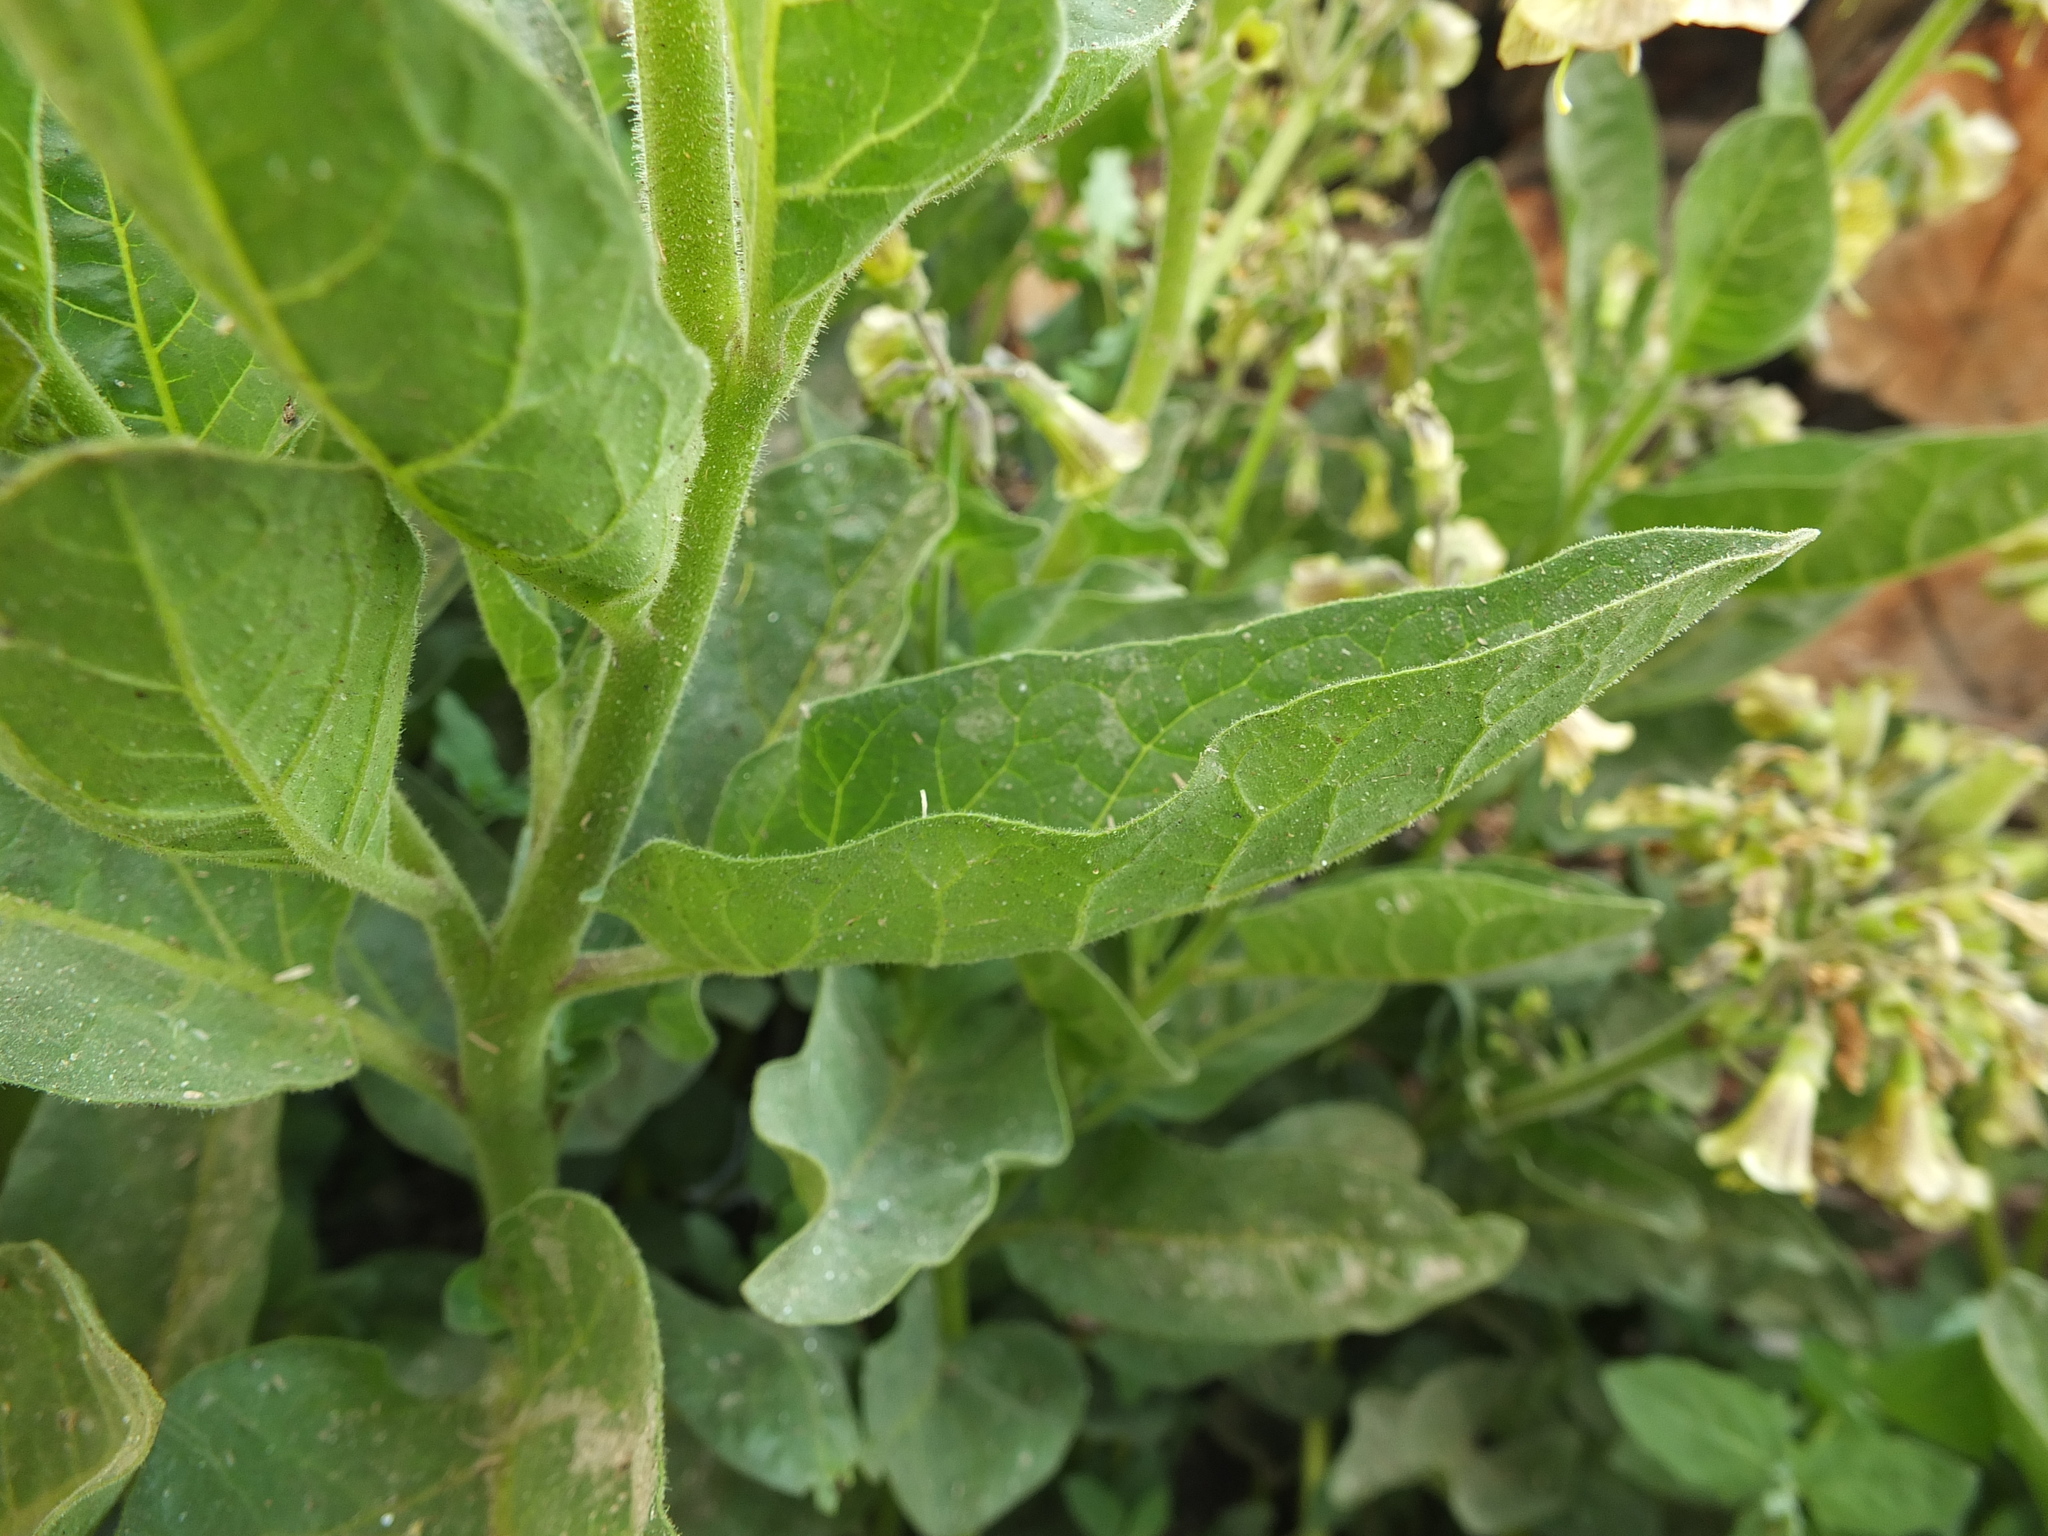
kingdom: Plantae
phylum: Tracheophyta
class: Magnoliopsida
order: Solanales
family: Solanaceae
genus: Physochlaina
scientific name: Physochlaina physaloides
